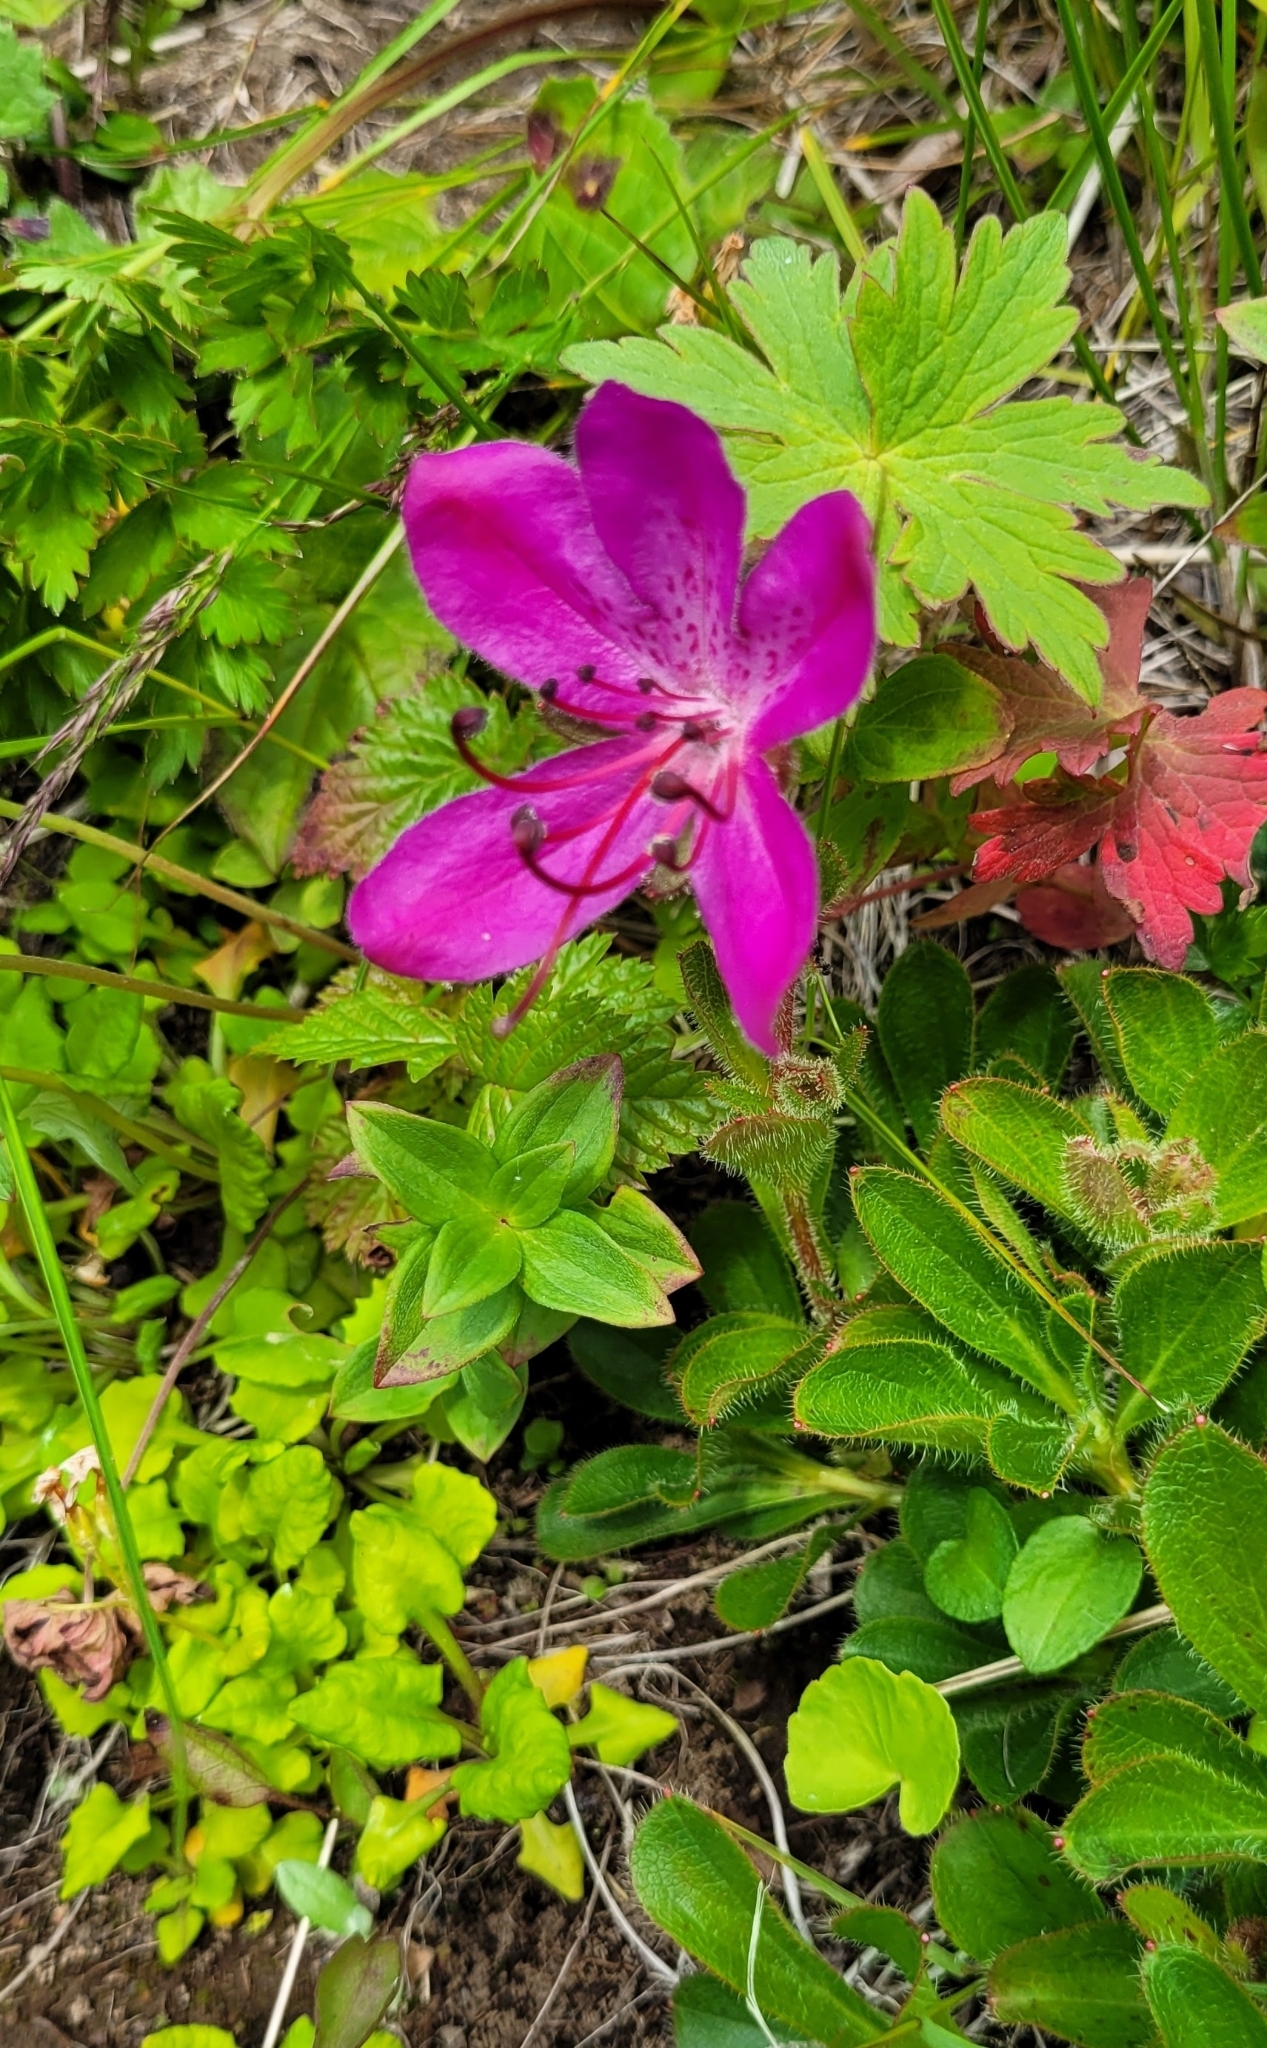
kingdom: Plantae
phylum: Tracheophyta
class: Magnoliopsida
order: Ericales
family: Ericaceae
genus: Rhododendron
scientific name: Rhododendron camtschaticum
